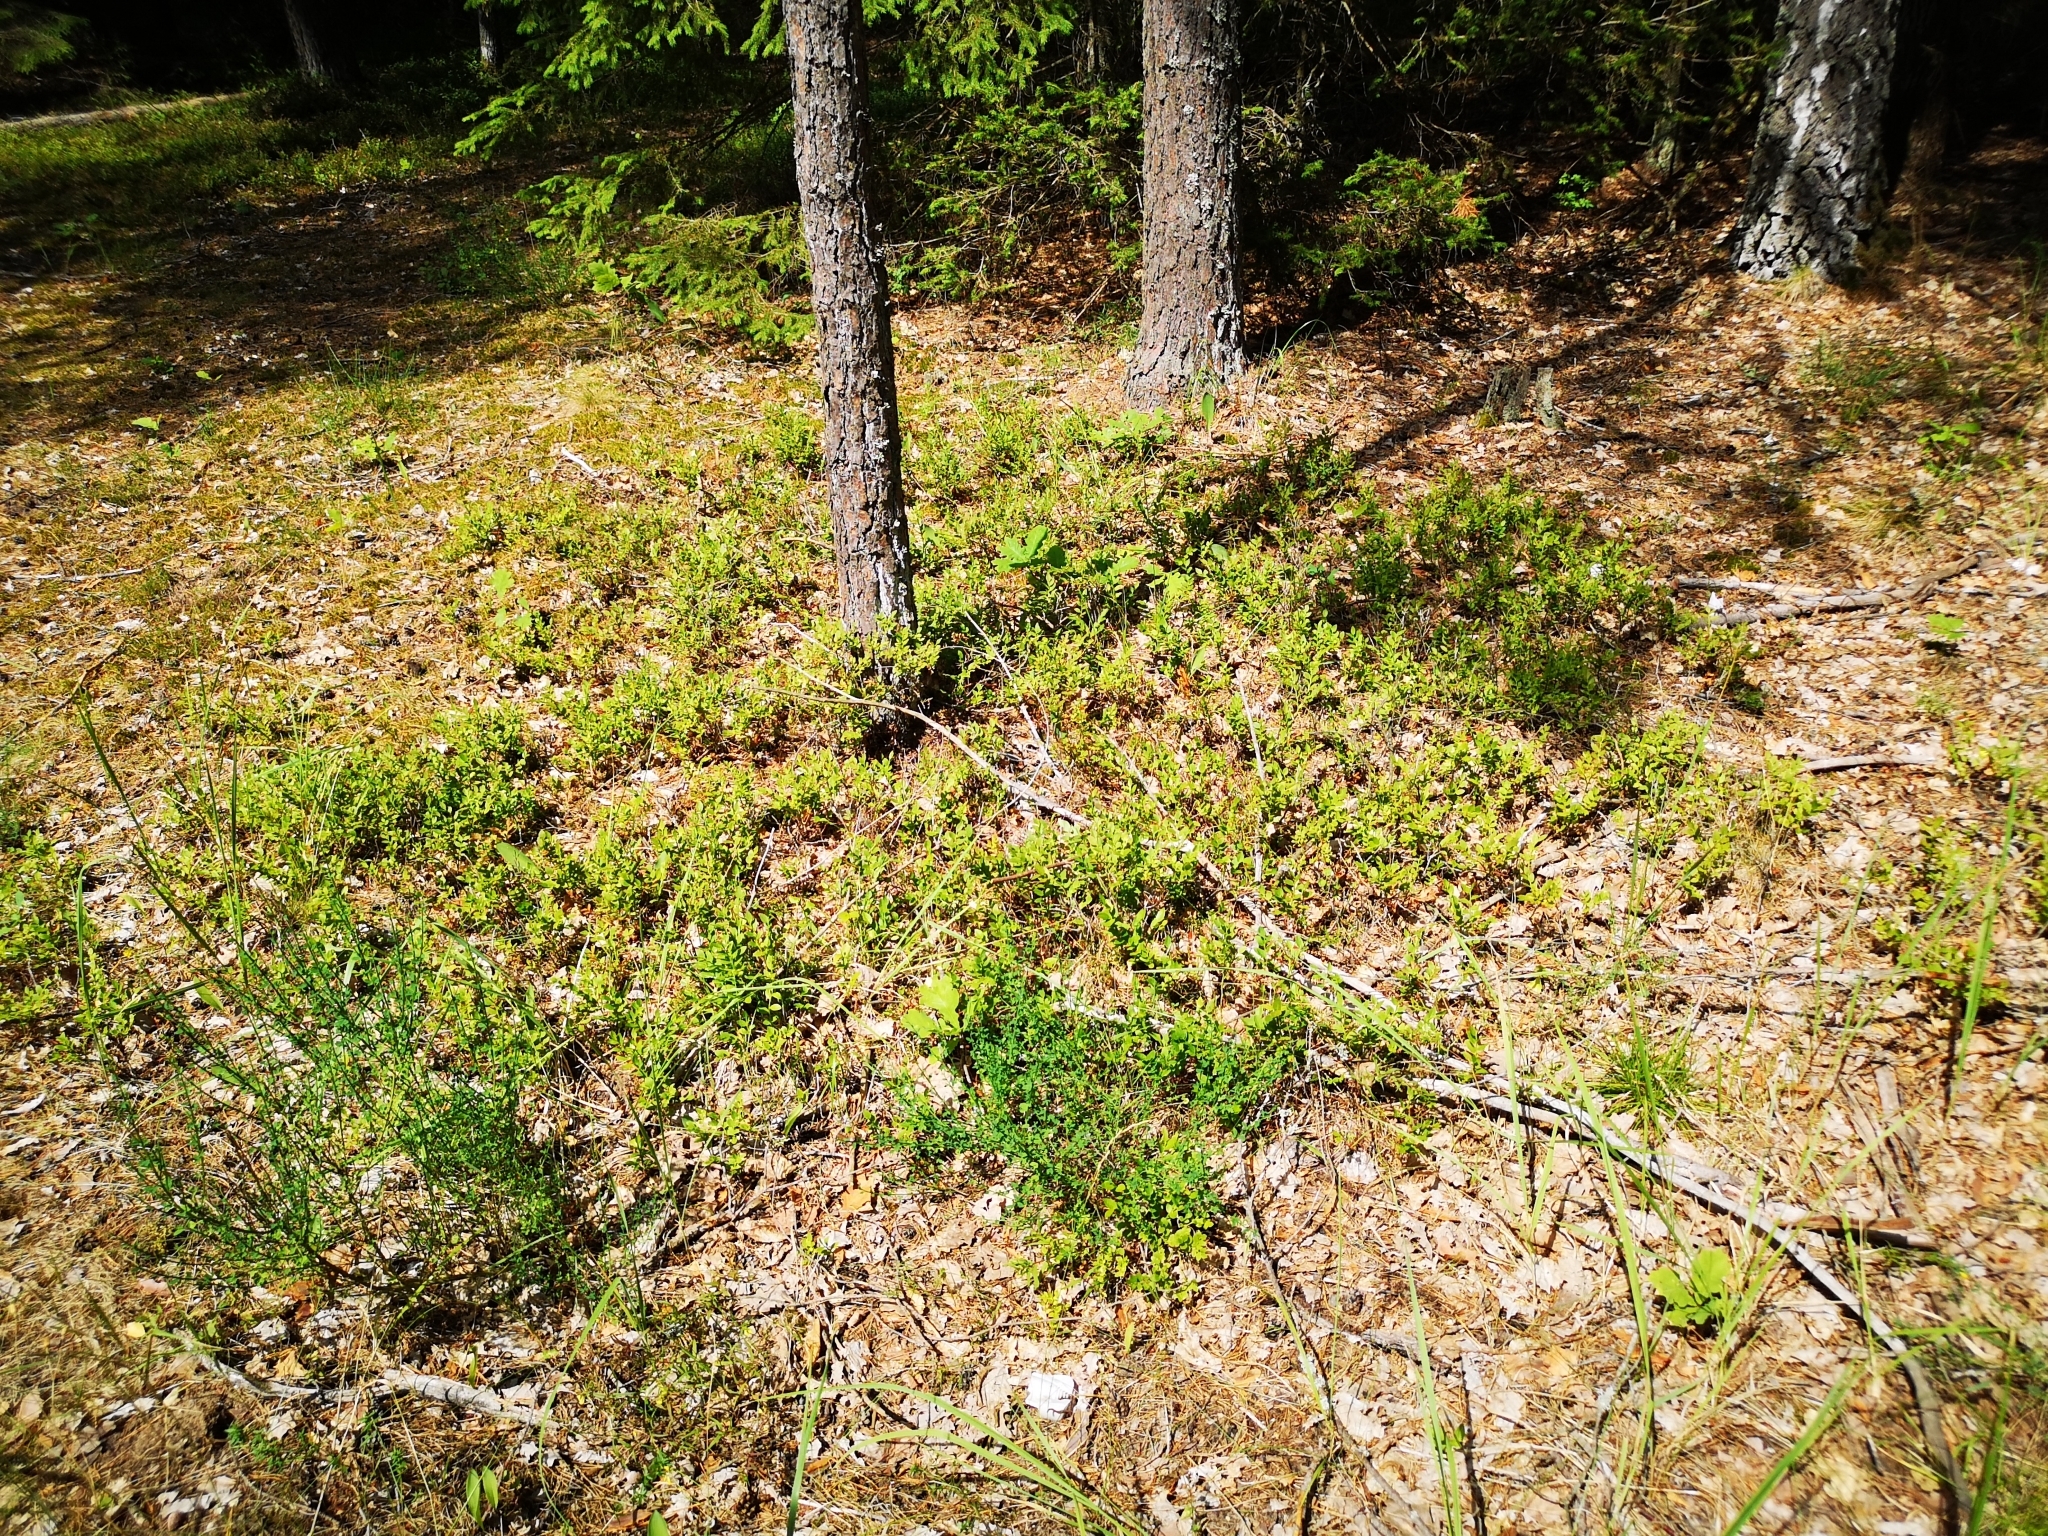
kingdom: Plantae
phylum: Tracheophyta
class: Magnoliopsida
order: Ericales
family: Ericaceae
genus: Vaccinium
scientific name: Vaccinium myrtillus
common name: Bilberry
